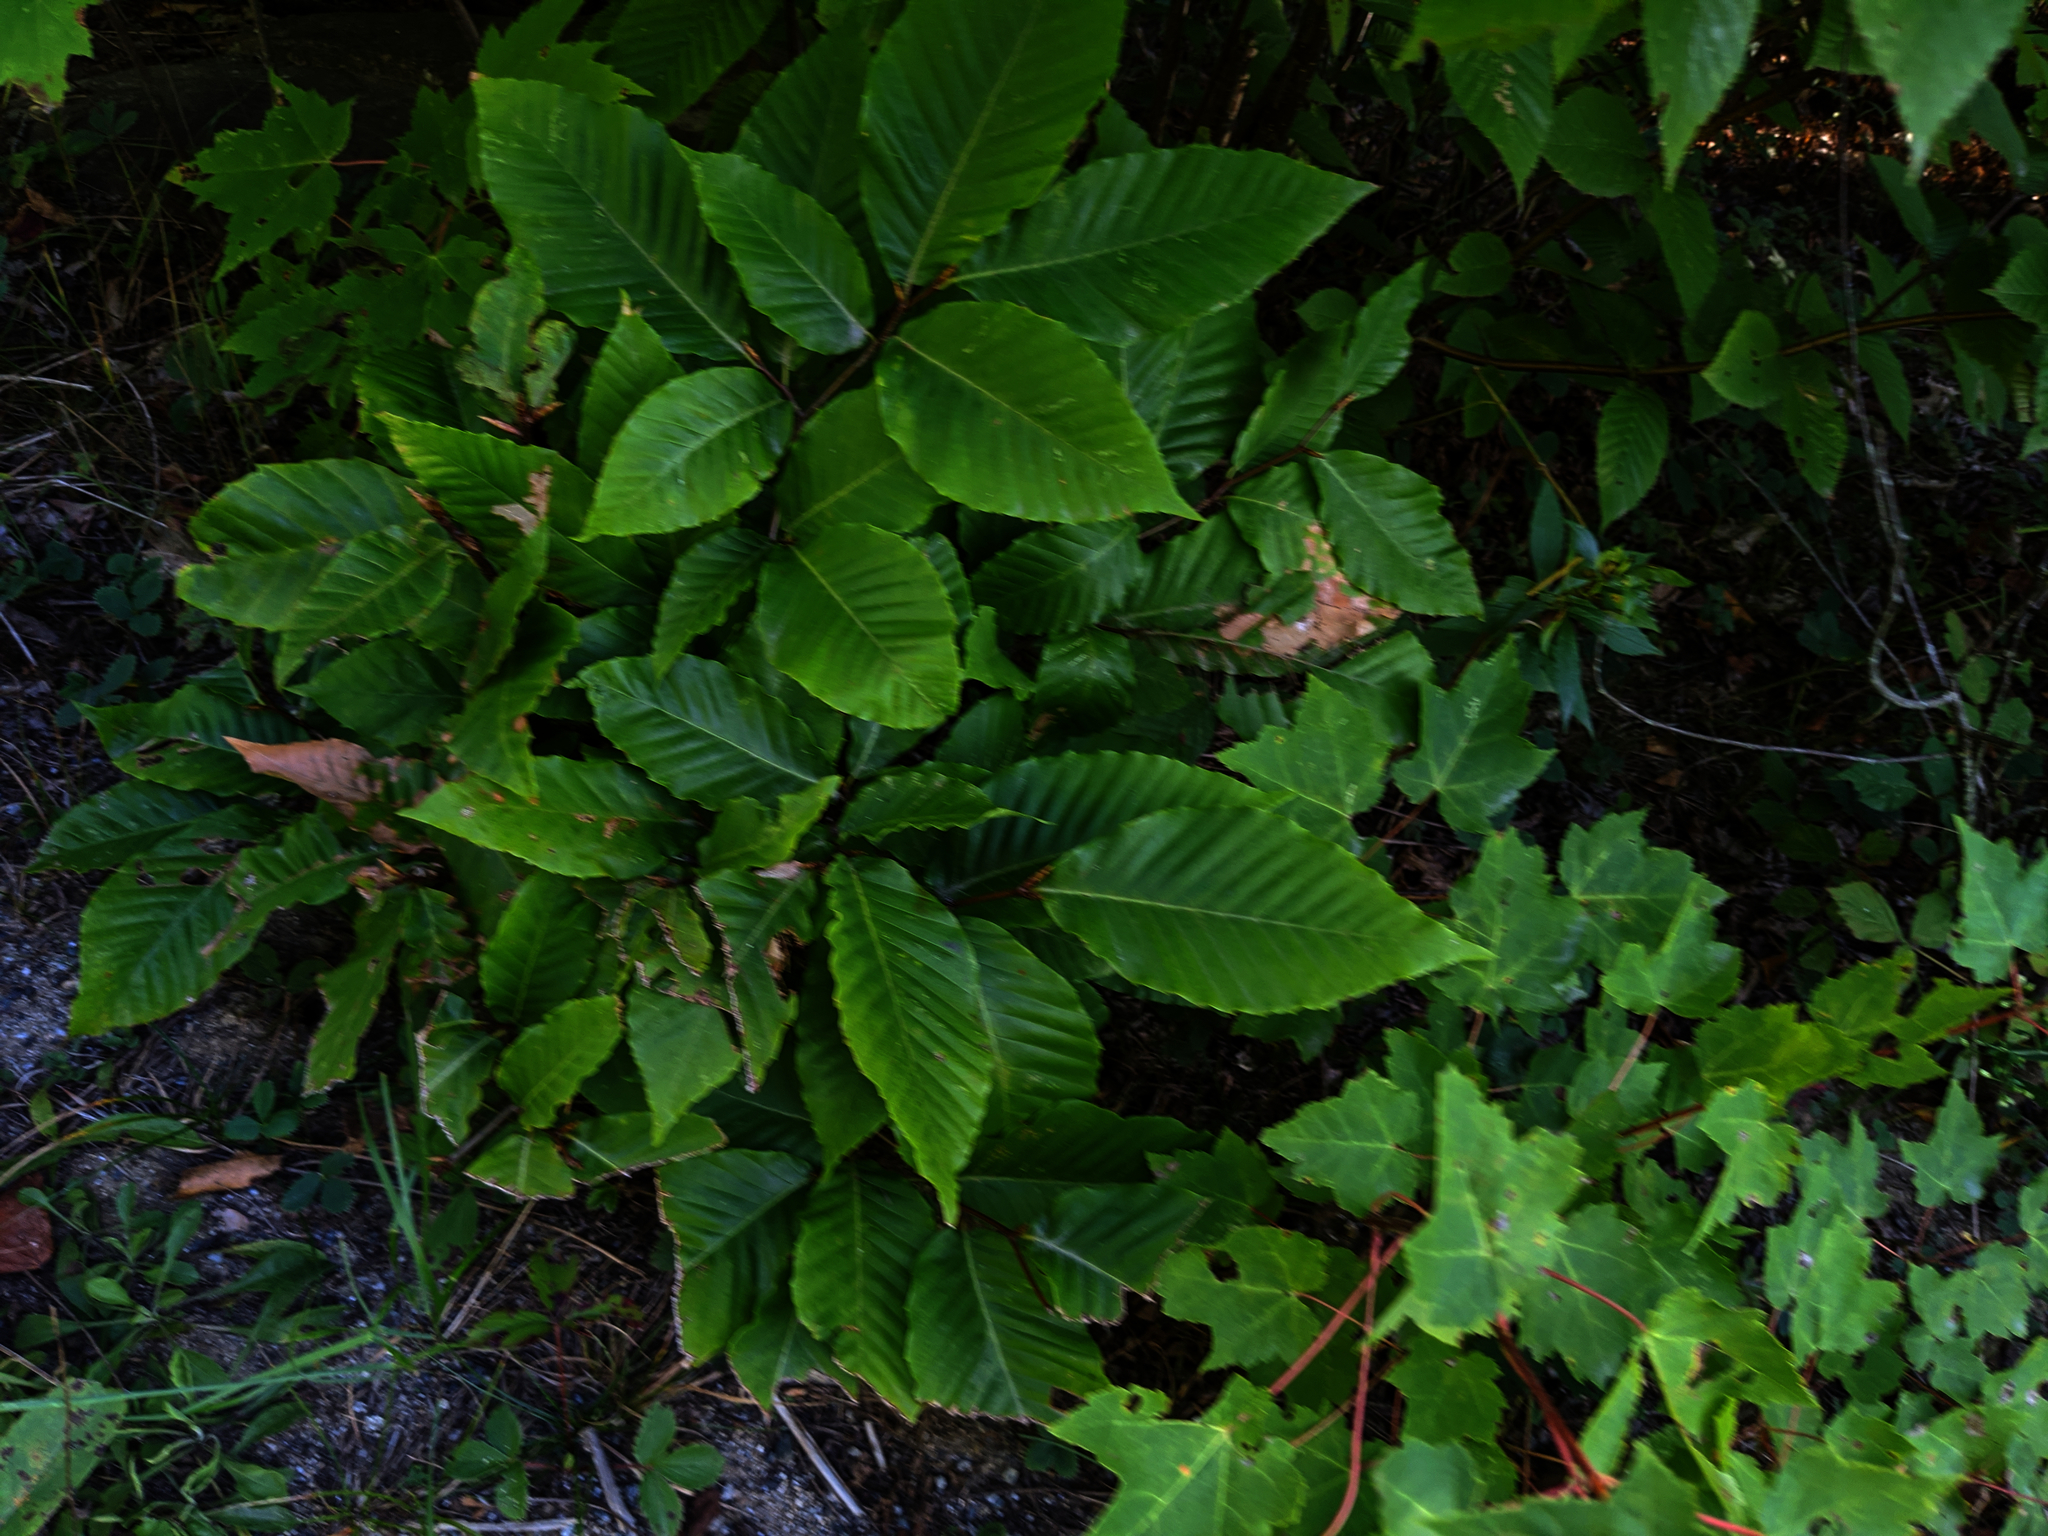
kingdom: Plantae
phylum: Tracheophyta
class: Magnoliopsida
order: Fagales
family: Fagaceae
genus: Fagus
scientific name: Fagus grandifolia
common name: American beech
